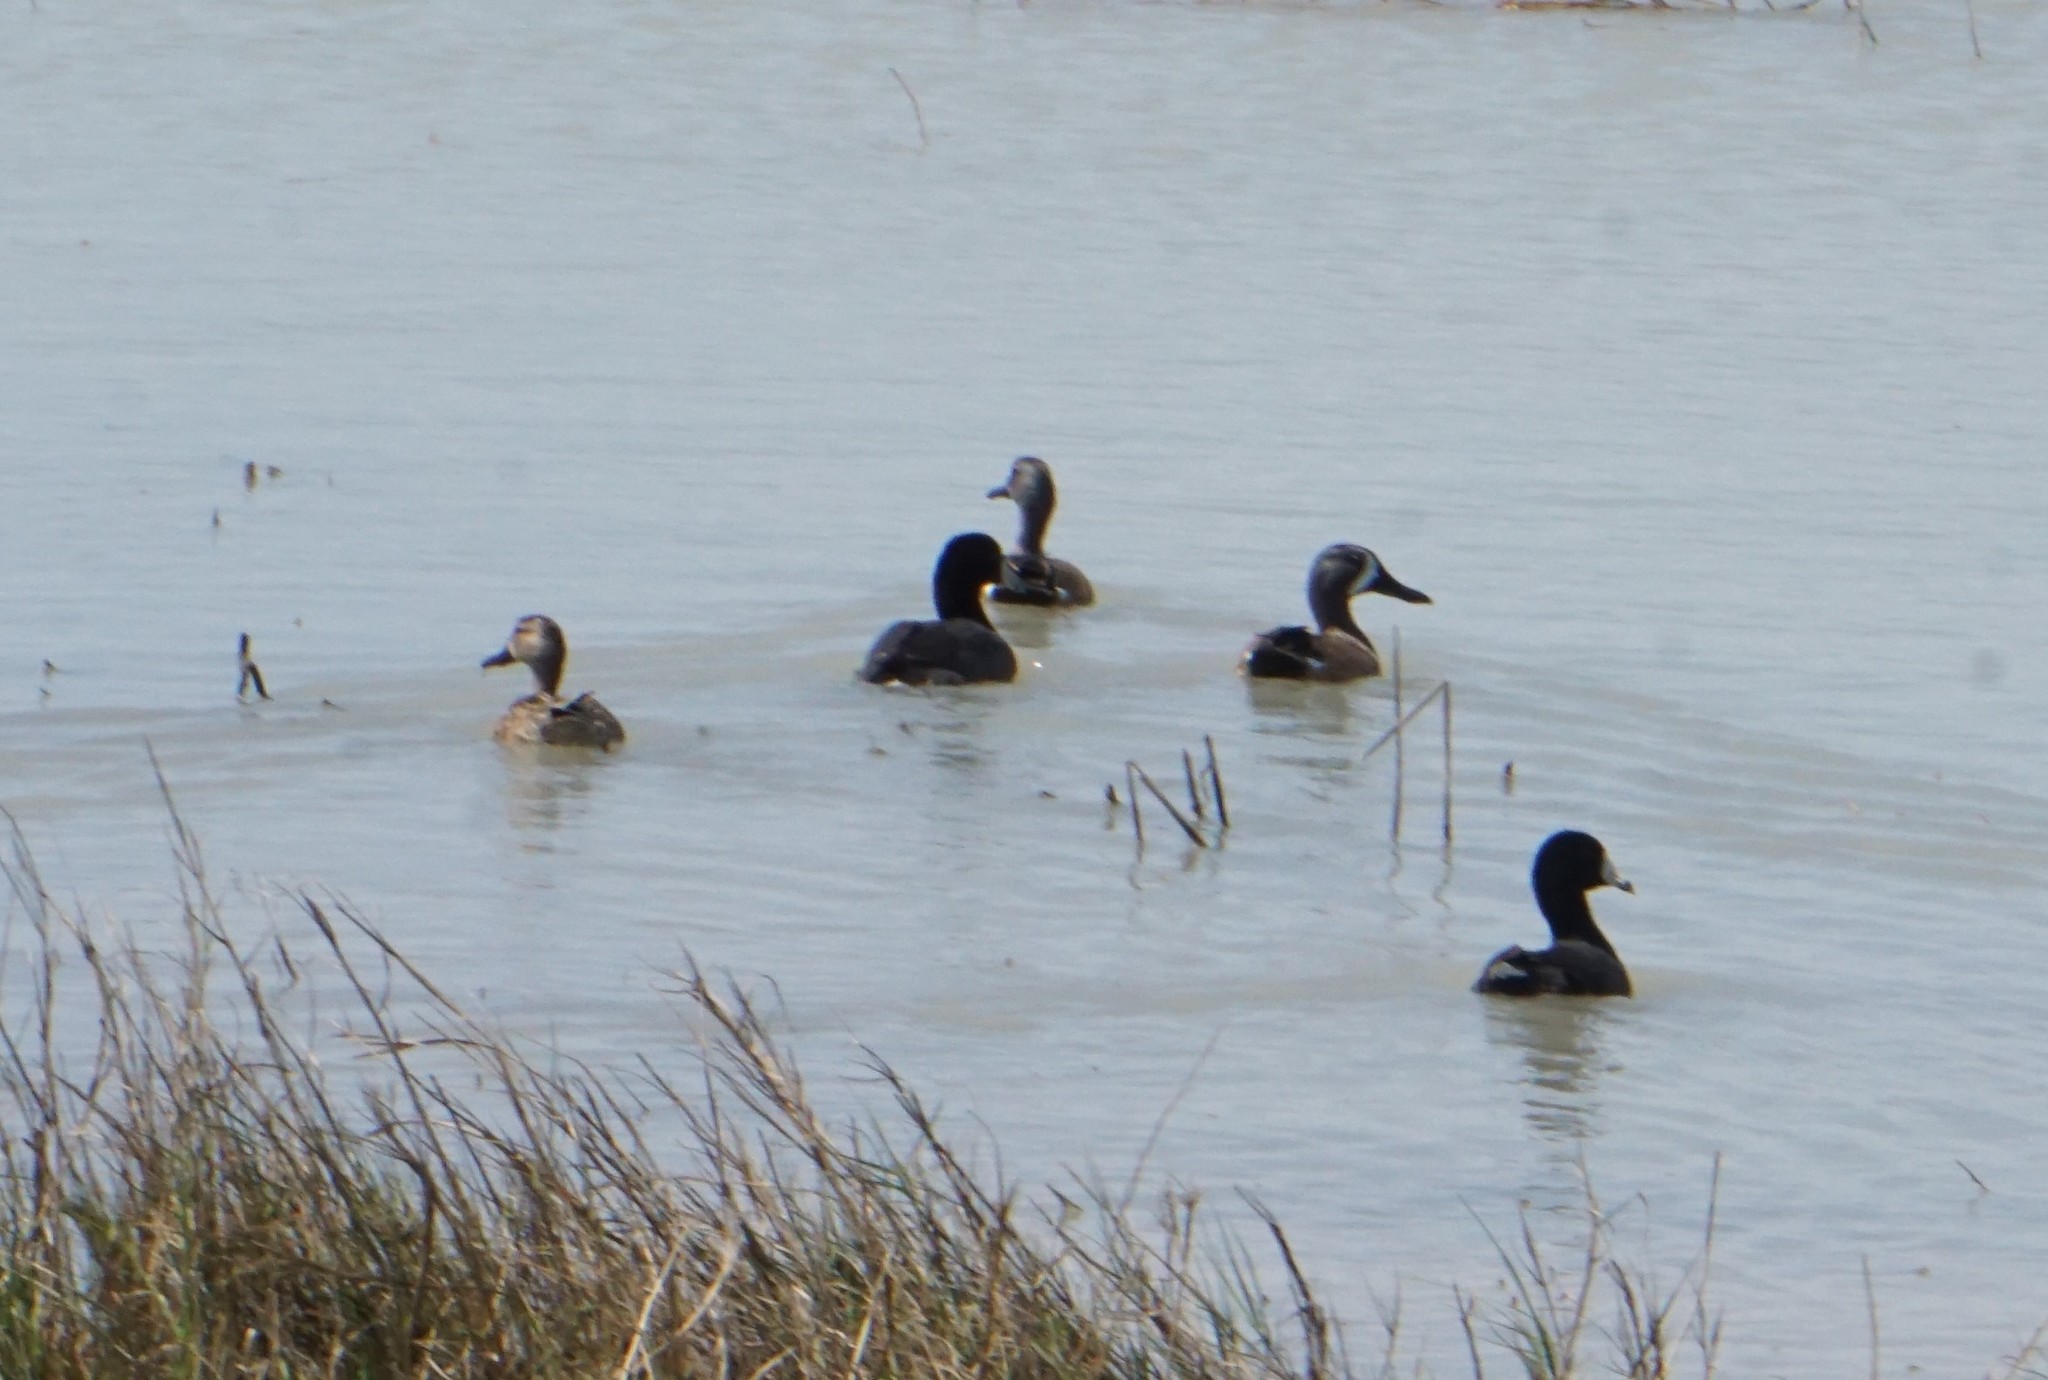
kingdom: Animalia
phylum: Chordata
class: Aves
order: Anseriformes
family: Anatidae
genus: Spatula
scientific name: Spatula discors
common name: Blue-winged teal
